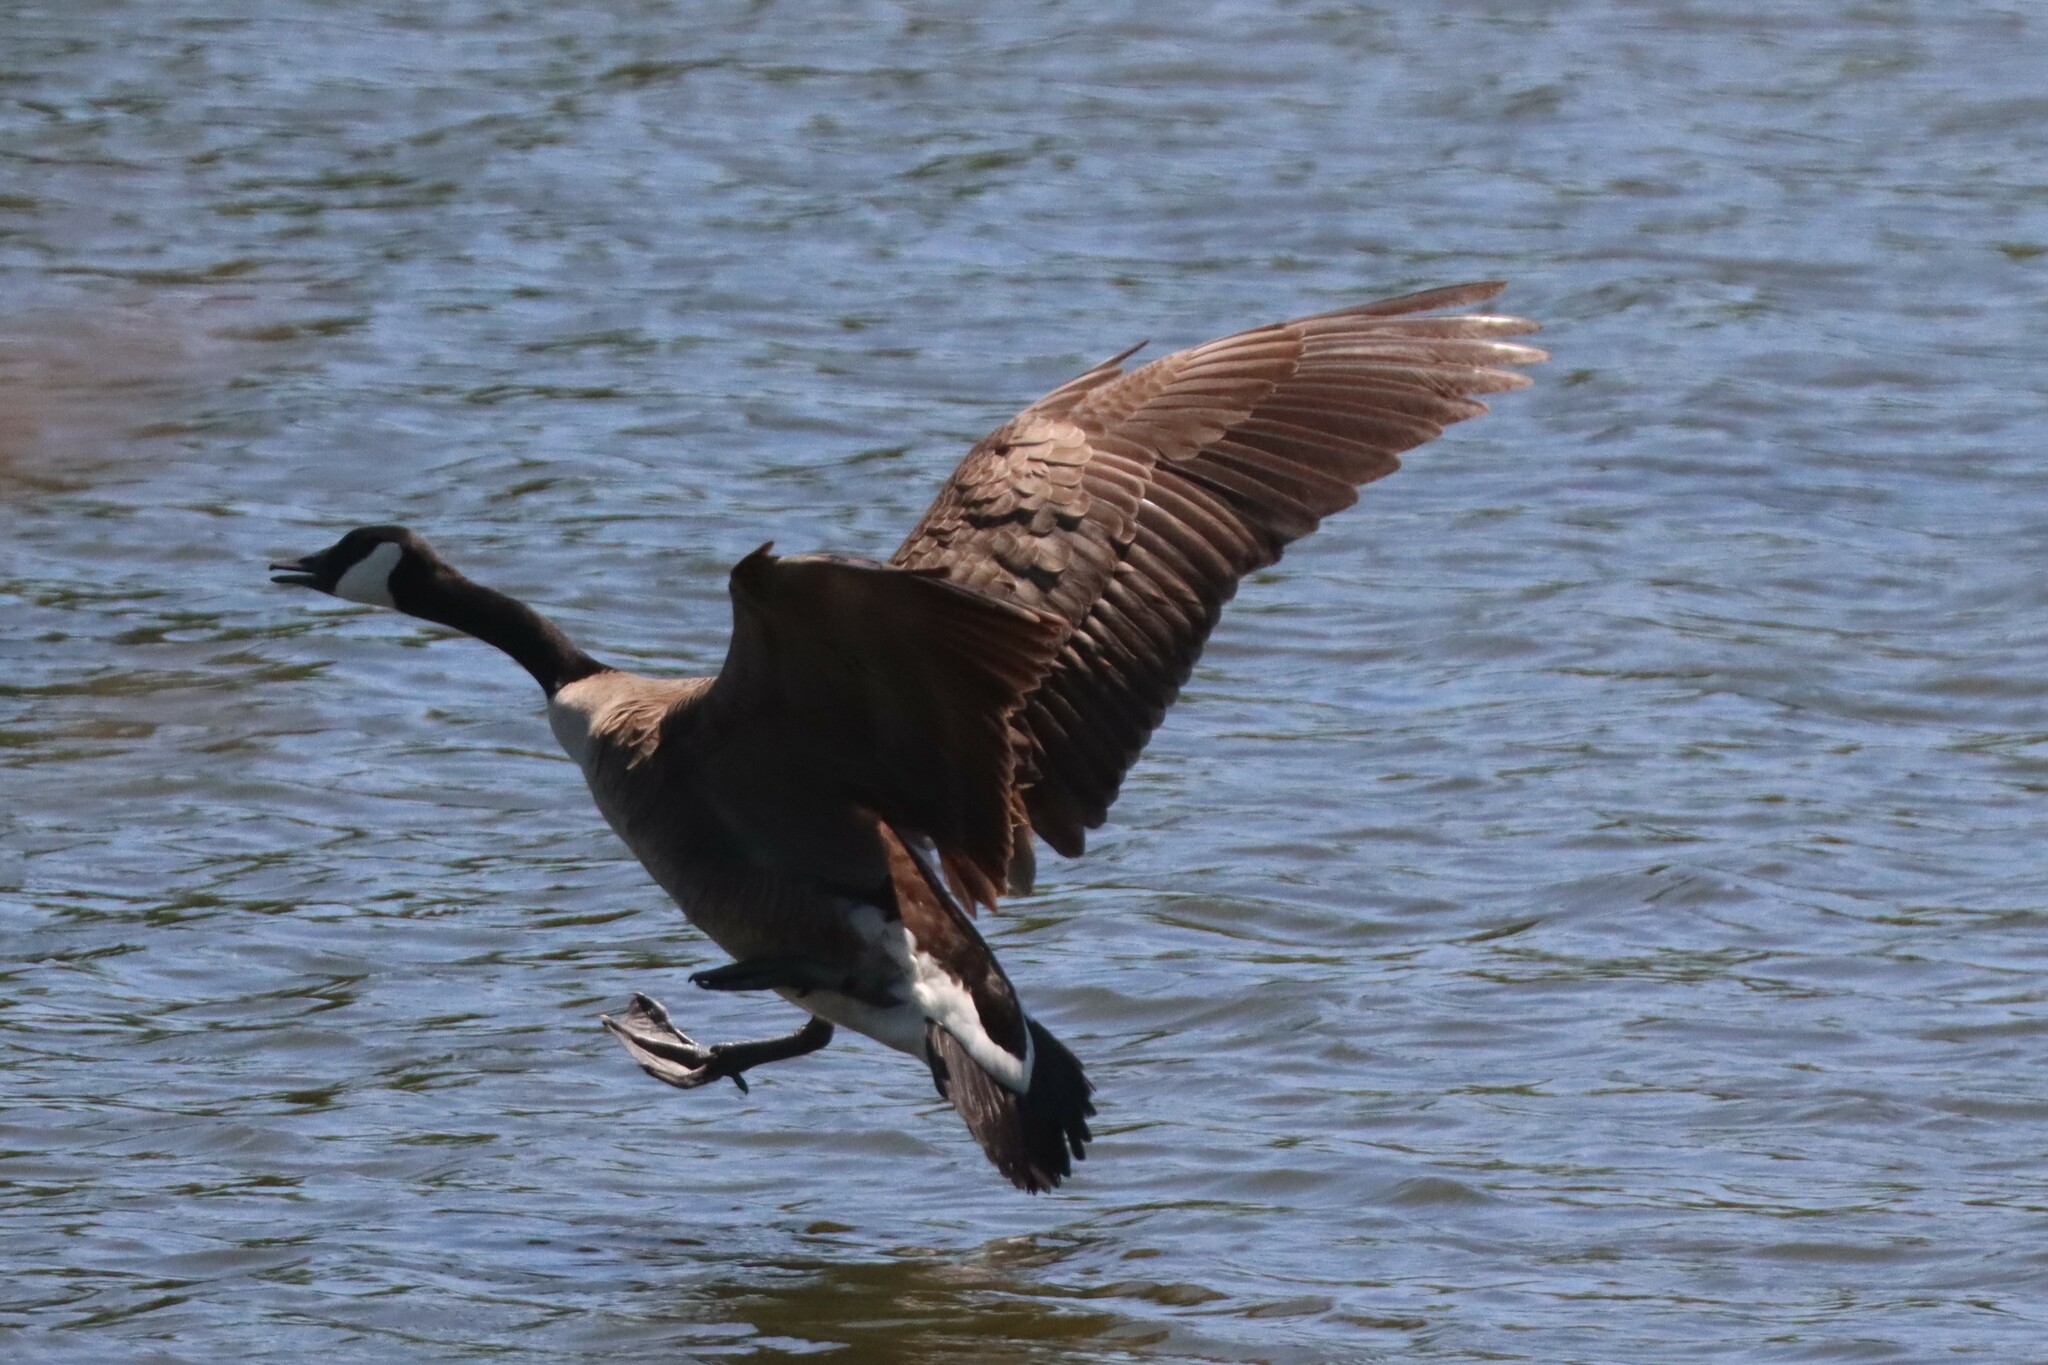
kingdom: Animalia
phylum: Chordata
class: Aves
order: Anseriformes
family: Anatidae
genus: Branta
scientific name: Branta canadensis
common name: Canada goose
